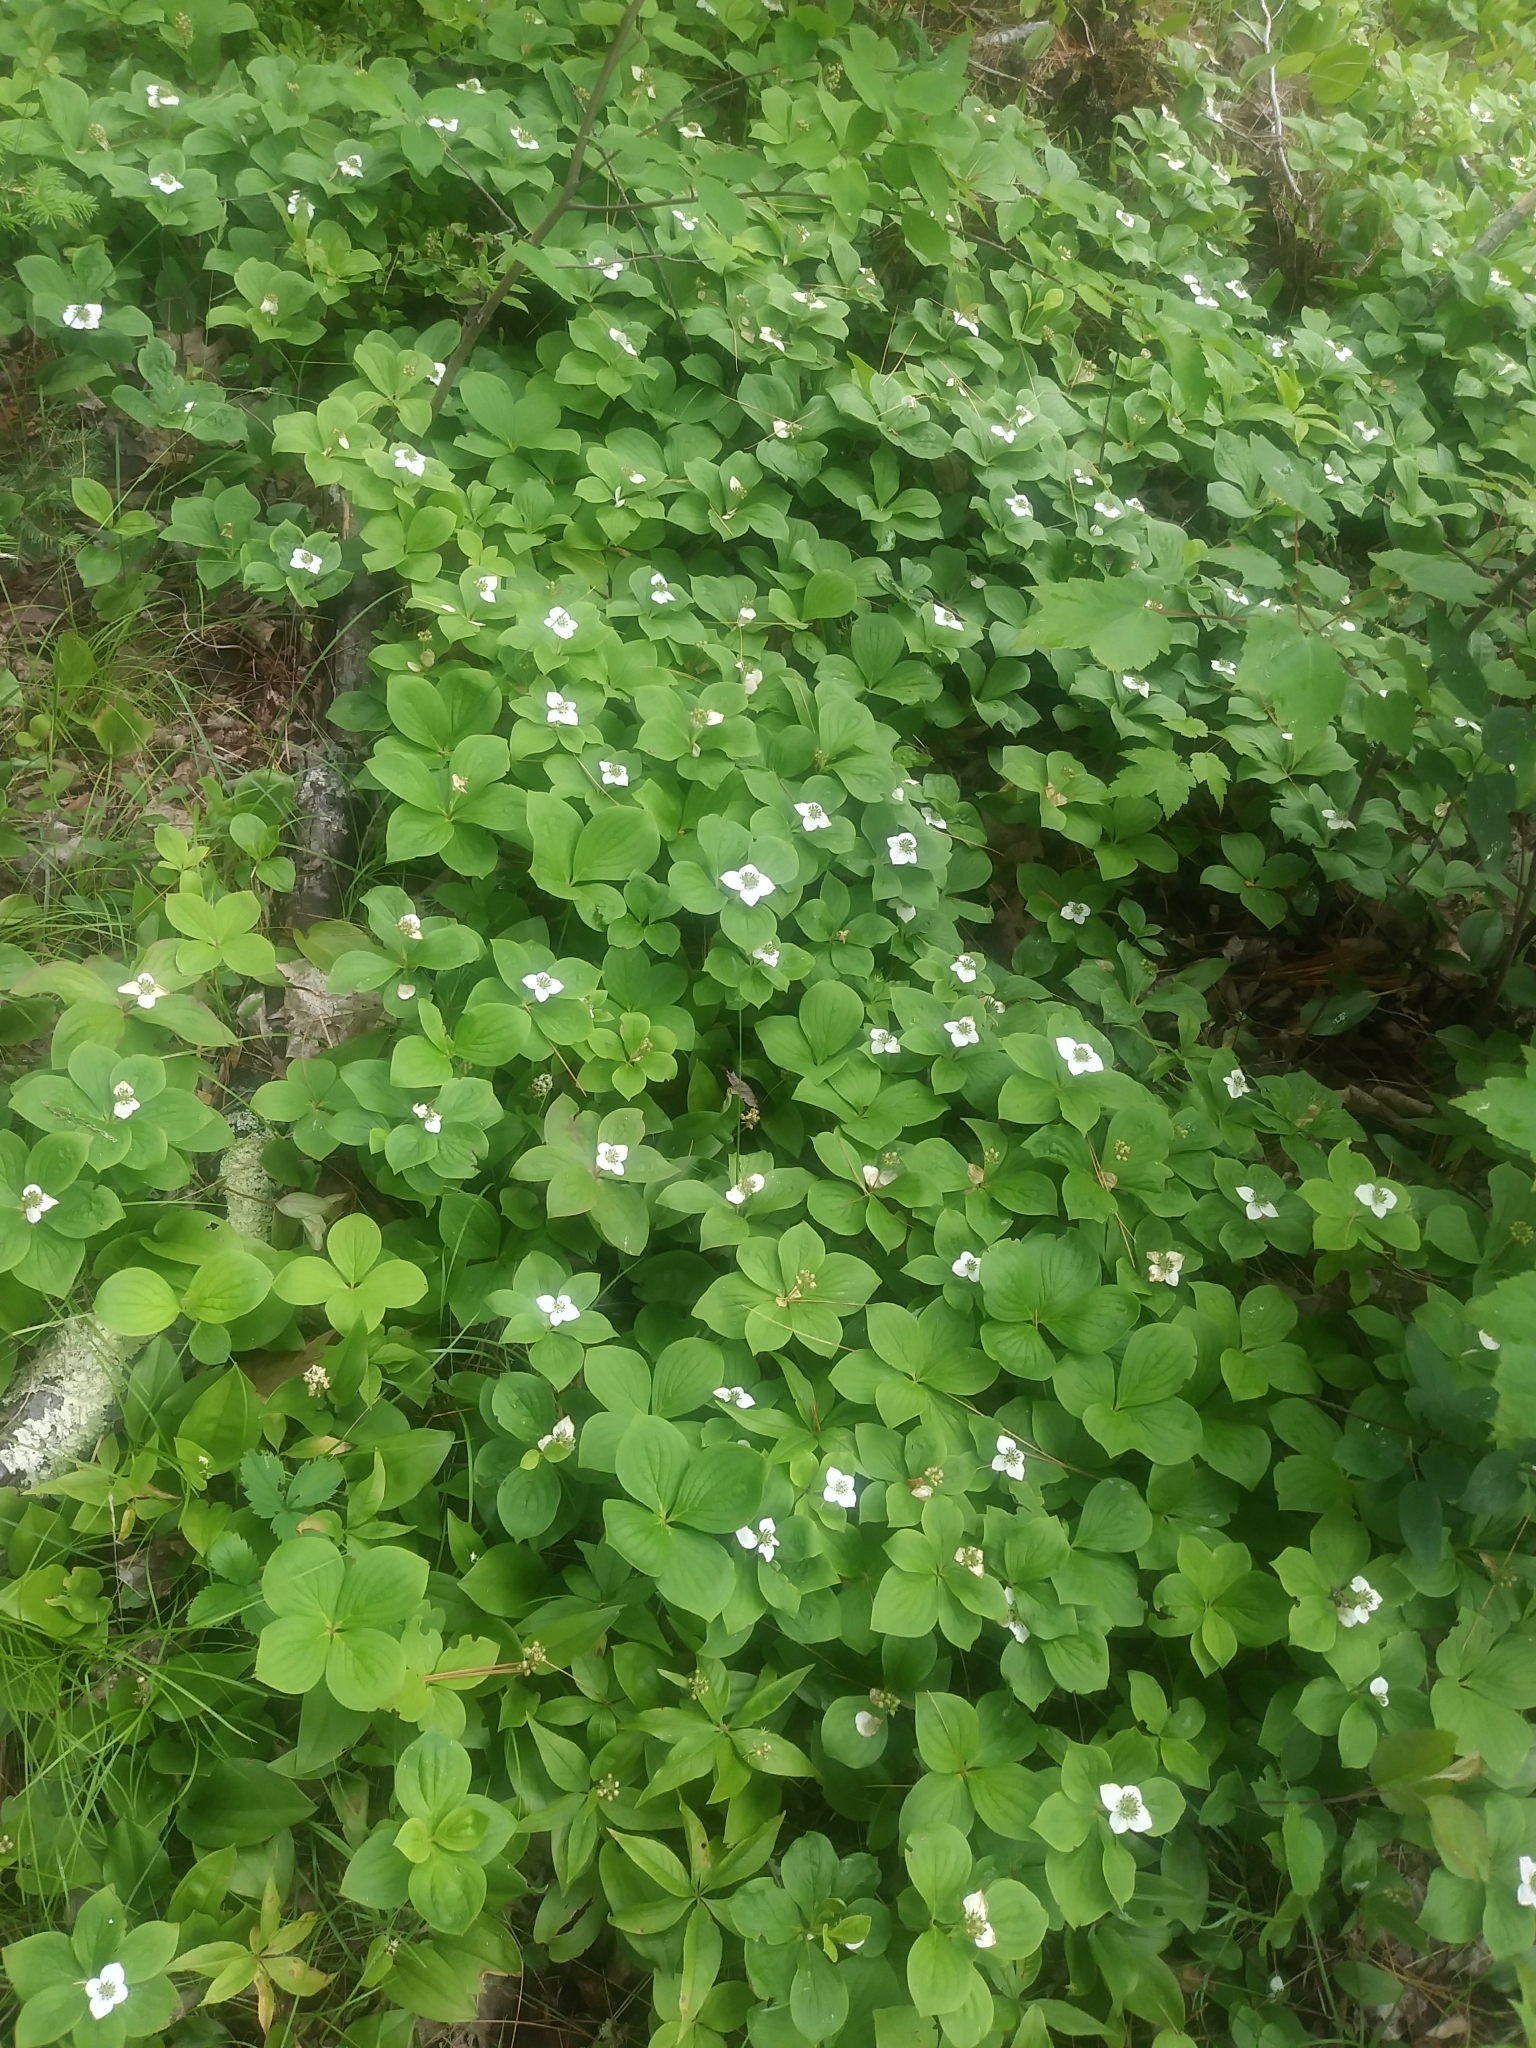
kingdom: Plantae
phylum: Tracheophyta
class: Magnoliopsida
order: Cornales
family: Cornaceae
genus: Cornus
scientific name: Cornus canadensis
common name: Creeping dogwood
